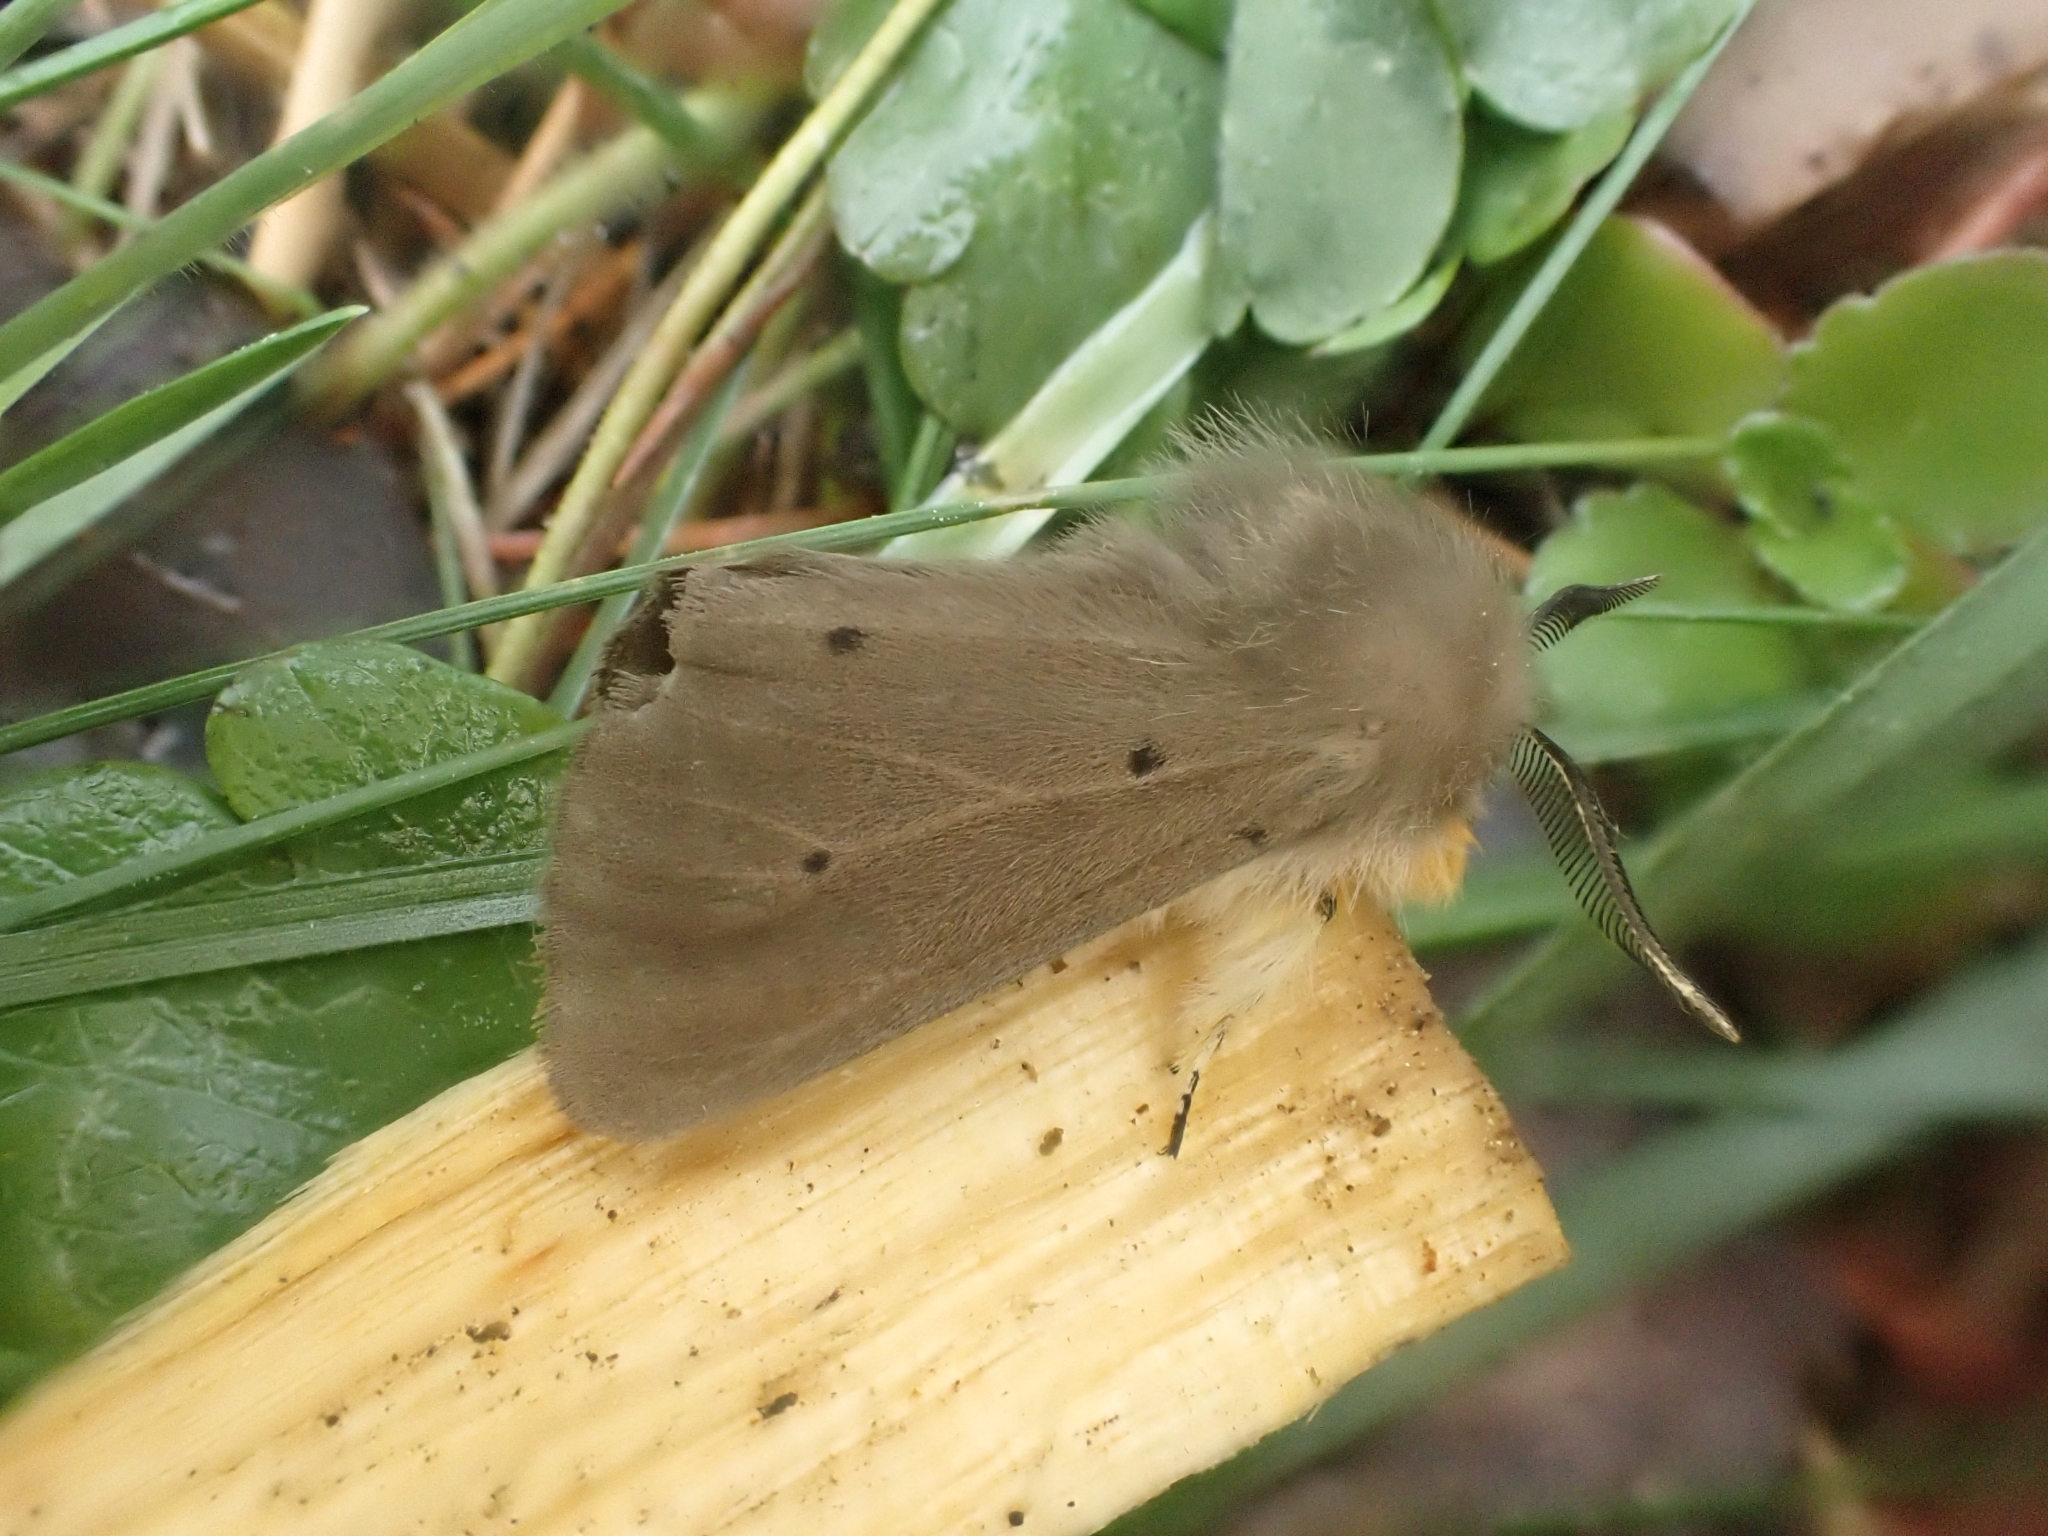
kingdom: Animalia
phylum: Arthropoda
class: Insecta
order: Lepidoptera
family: Erebidae
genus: Diaphora
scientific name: Diaphora mendica
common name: Muslin moth
